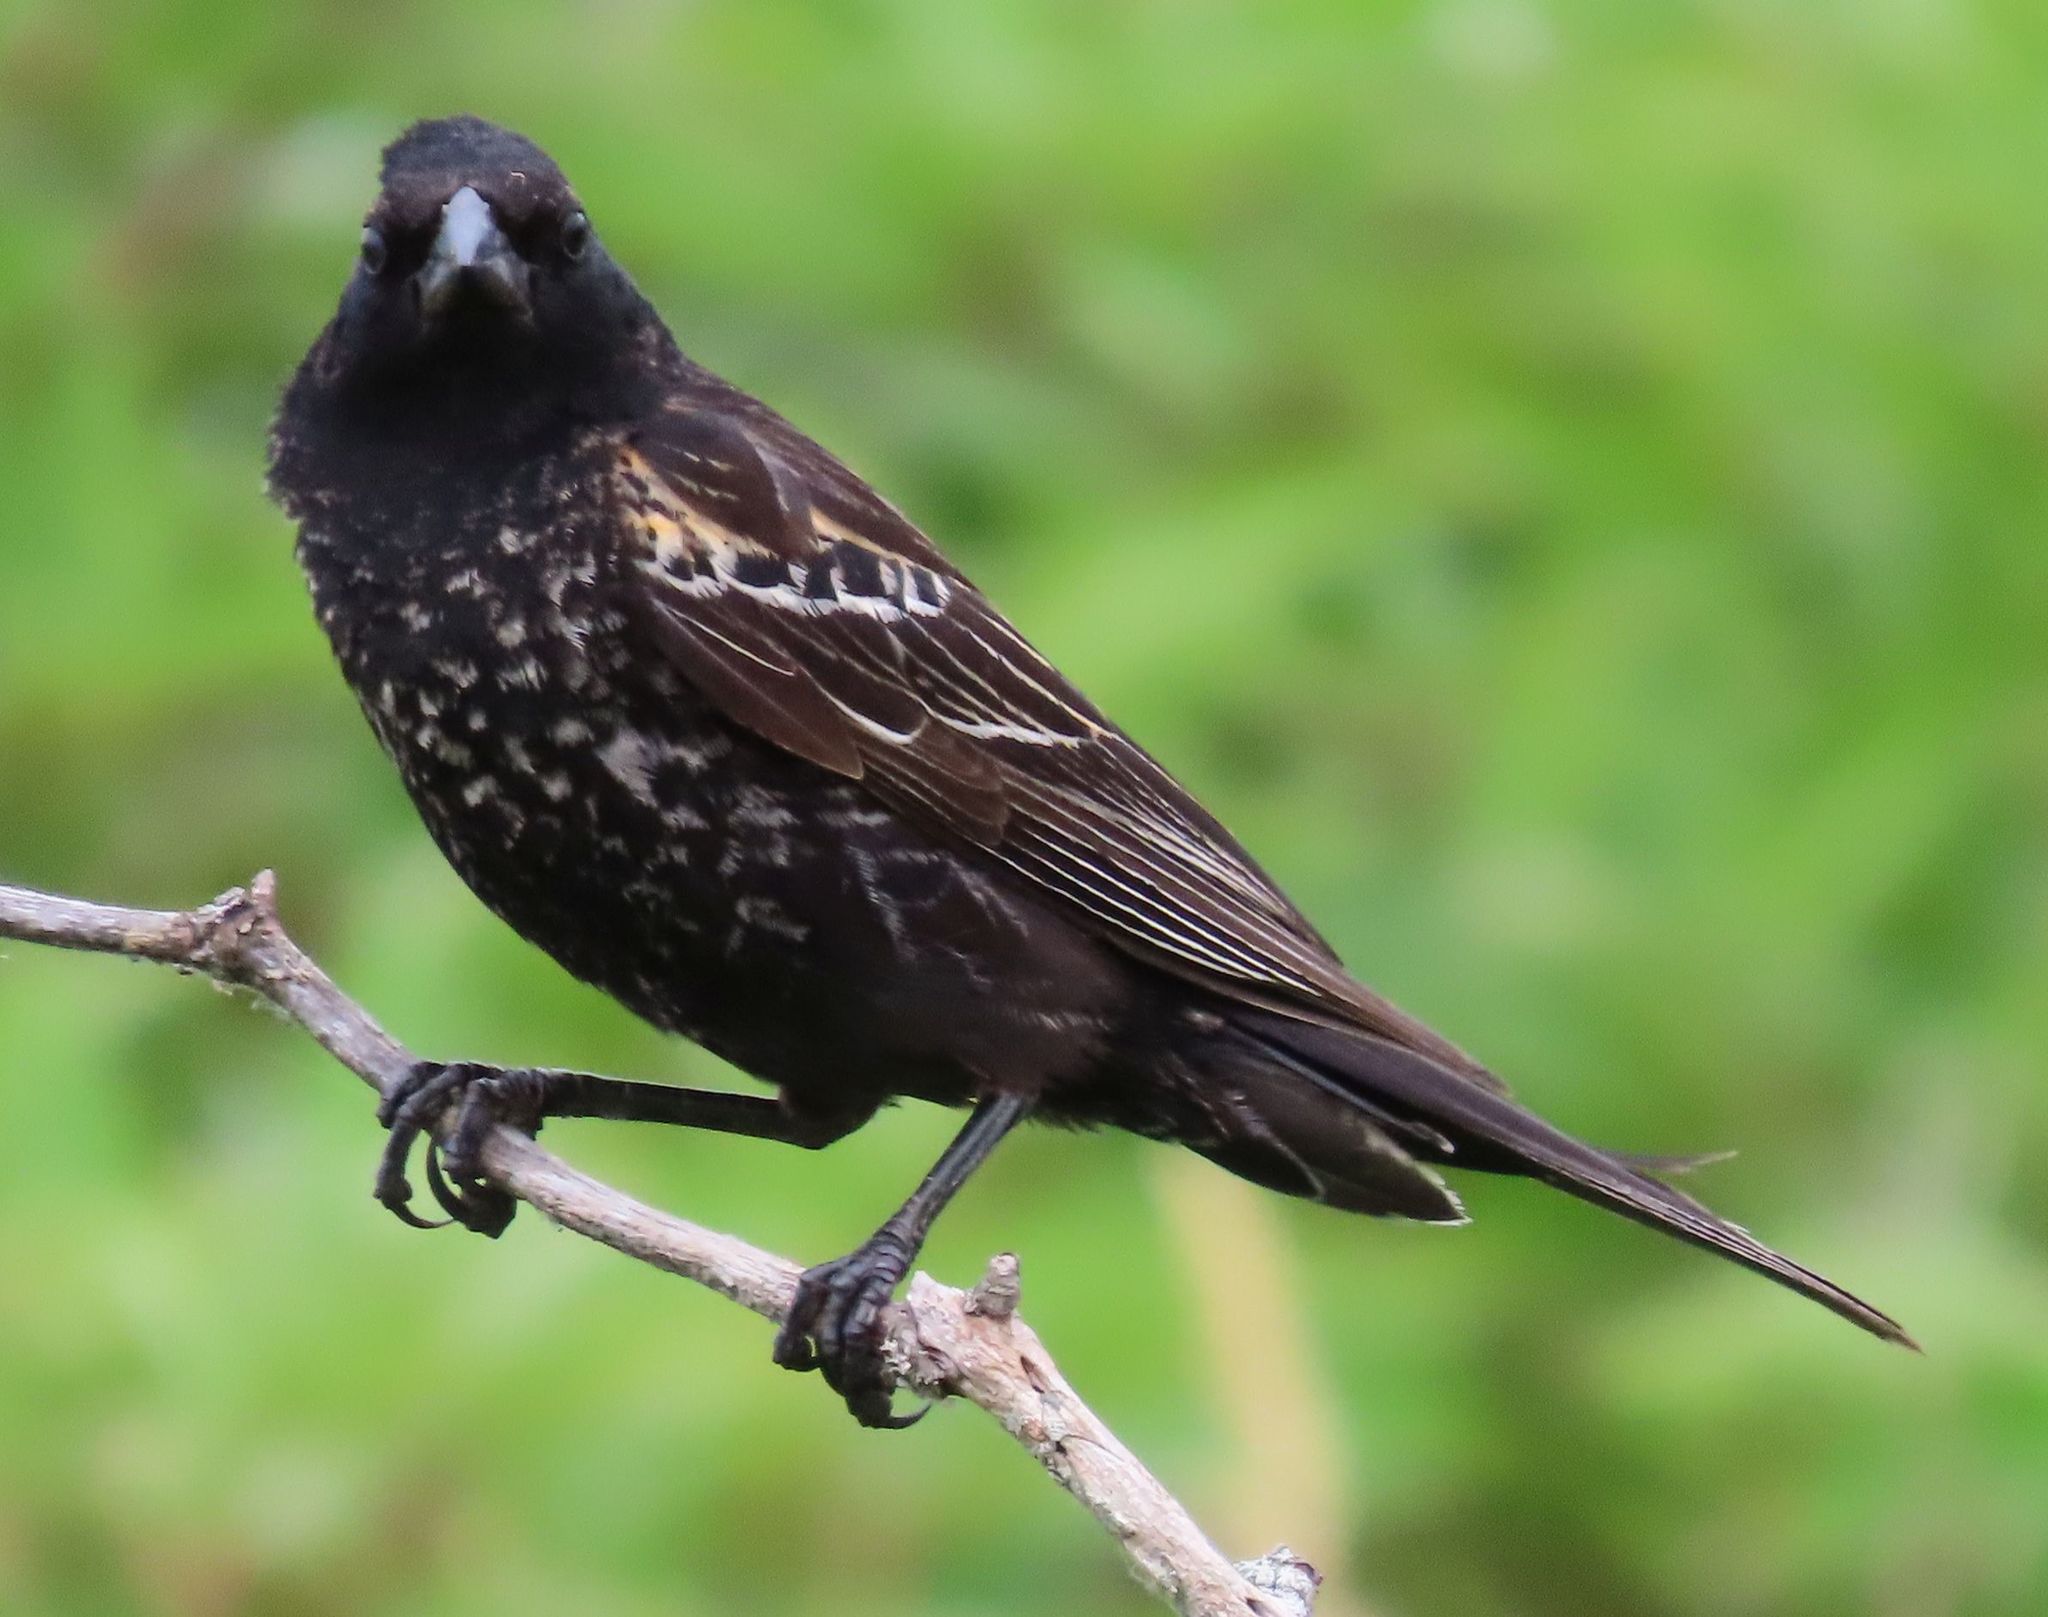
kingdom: Animalia
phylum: Chordata
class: Aves
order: Passeriformes
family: Icteridae
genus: Agelaius
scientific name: Agelaius phoeniceus
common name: Red-winged blackbird
